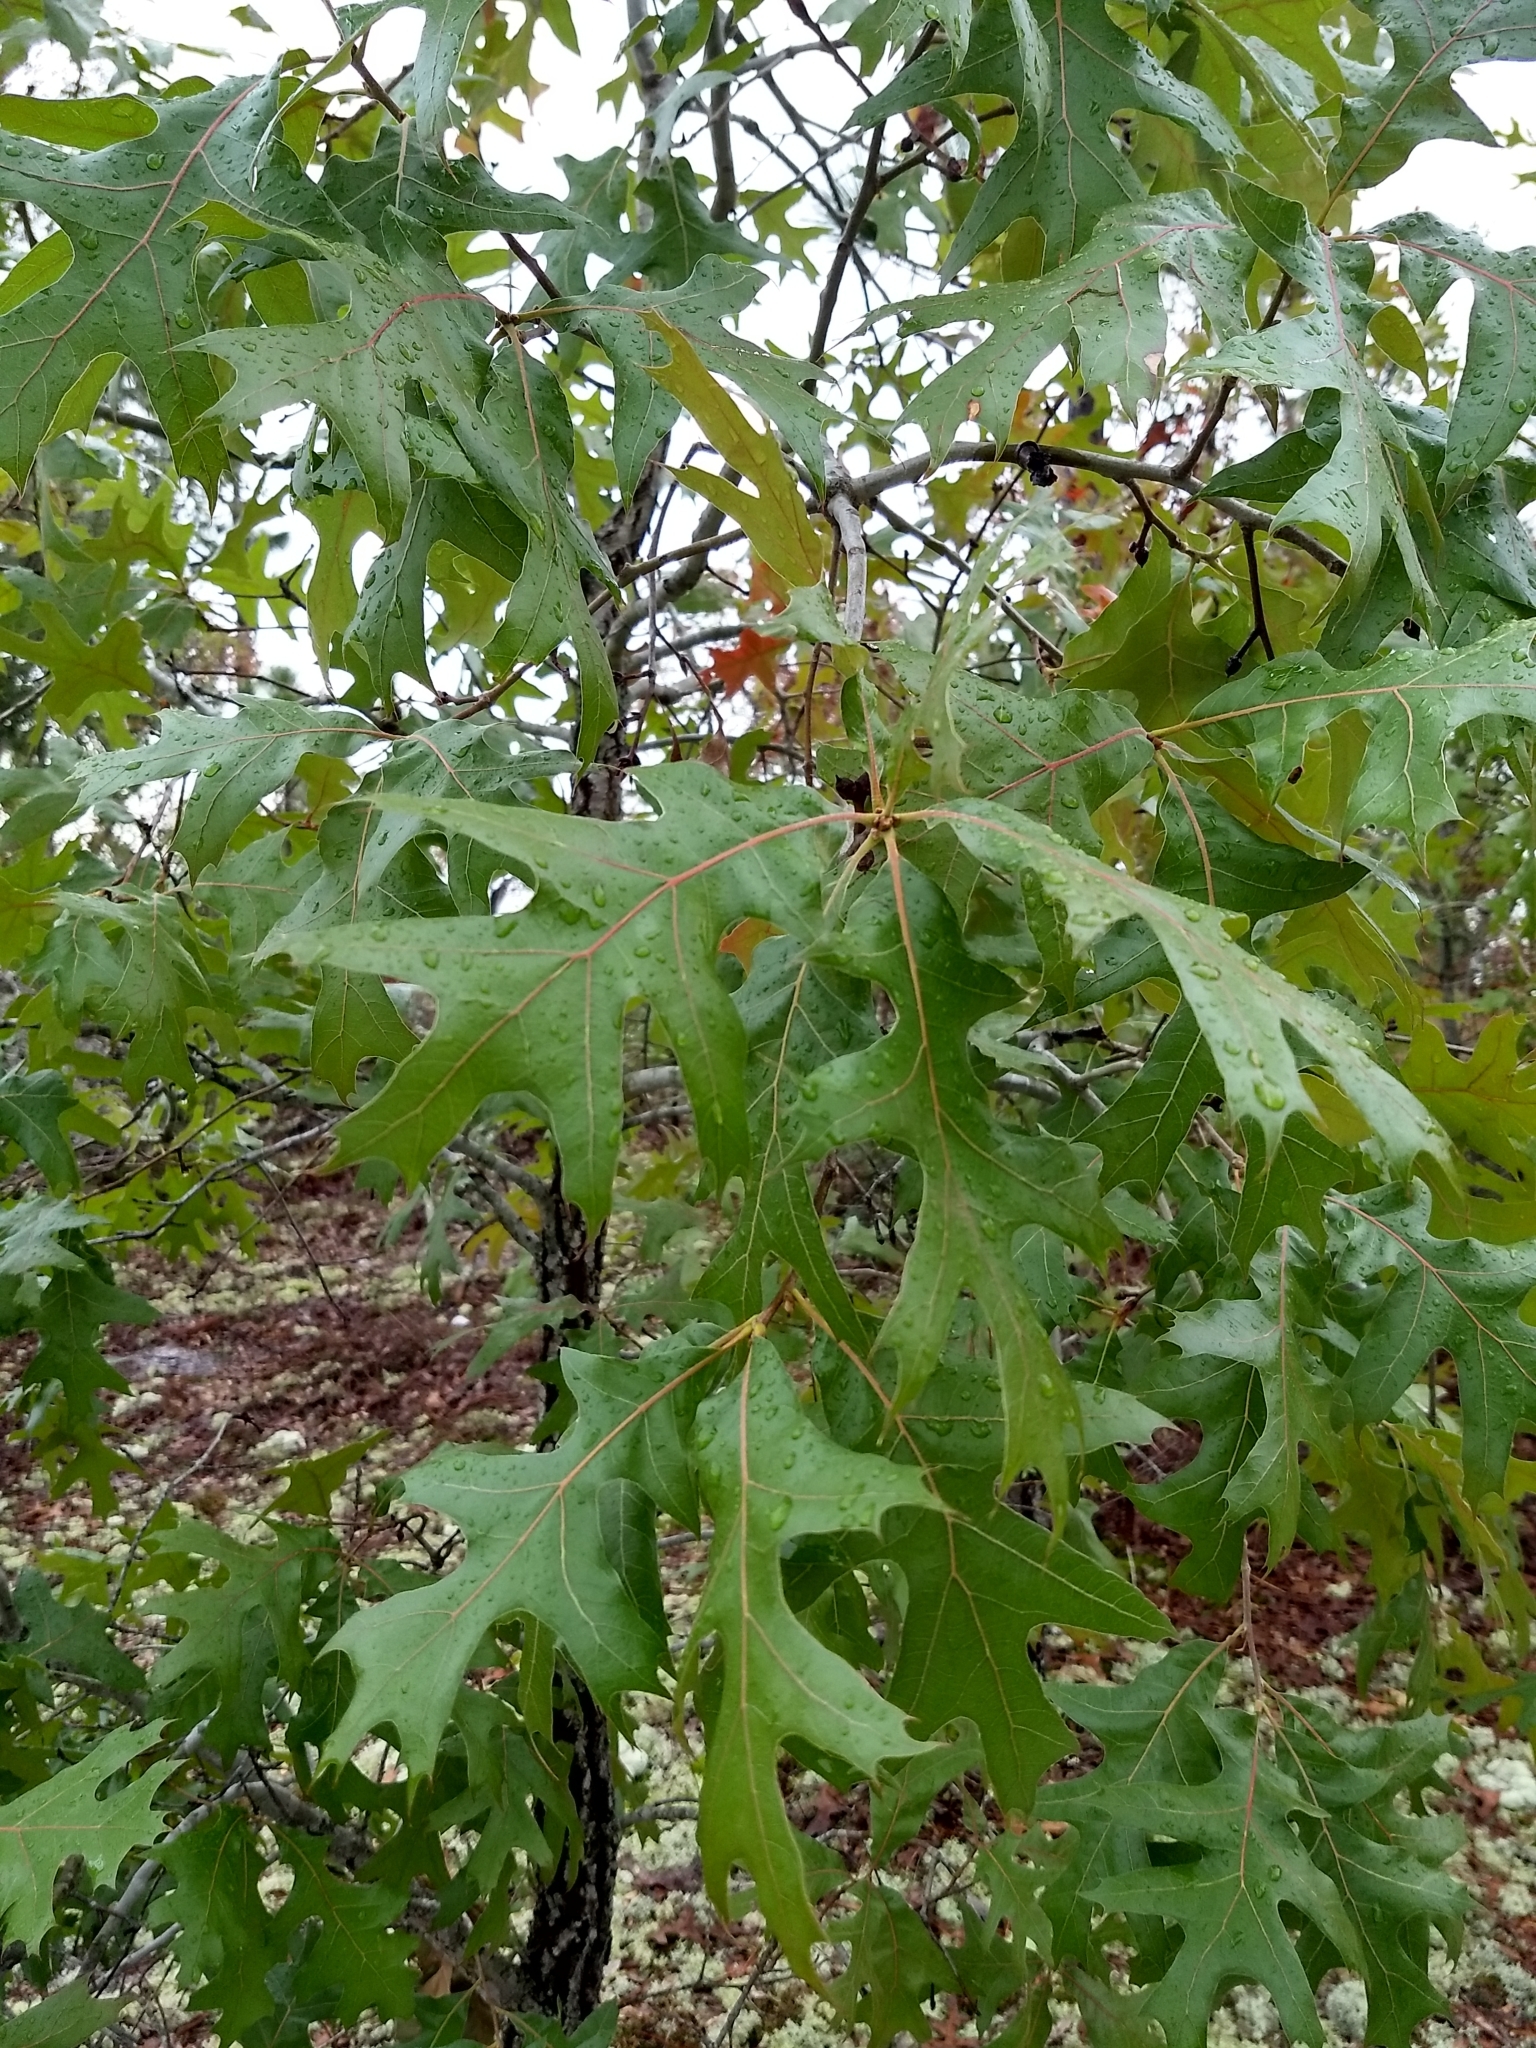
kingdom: Plantae
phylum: Tracheophyta
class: Magnoliopsida
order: Fagales
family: Fagaceae
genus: Quercus
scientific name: Quercus laevis
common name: Turkey oak
